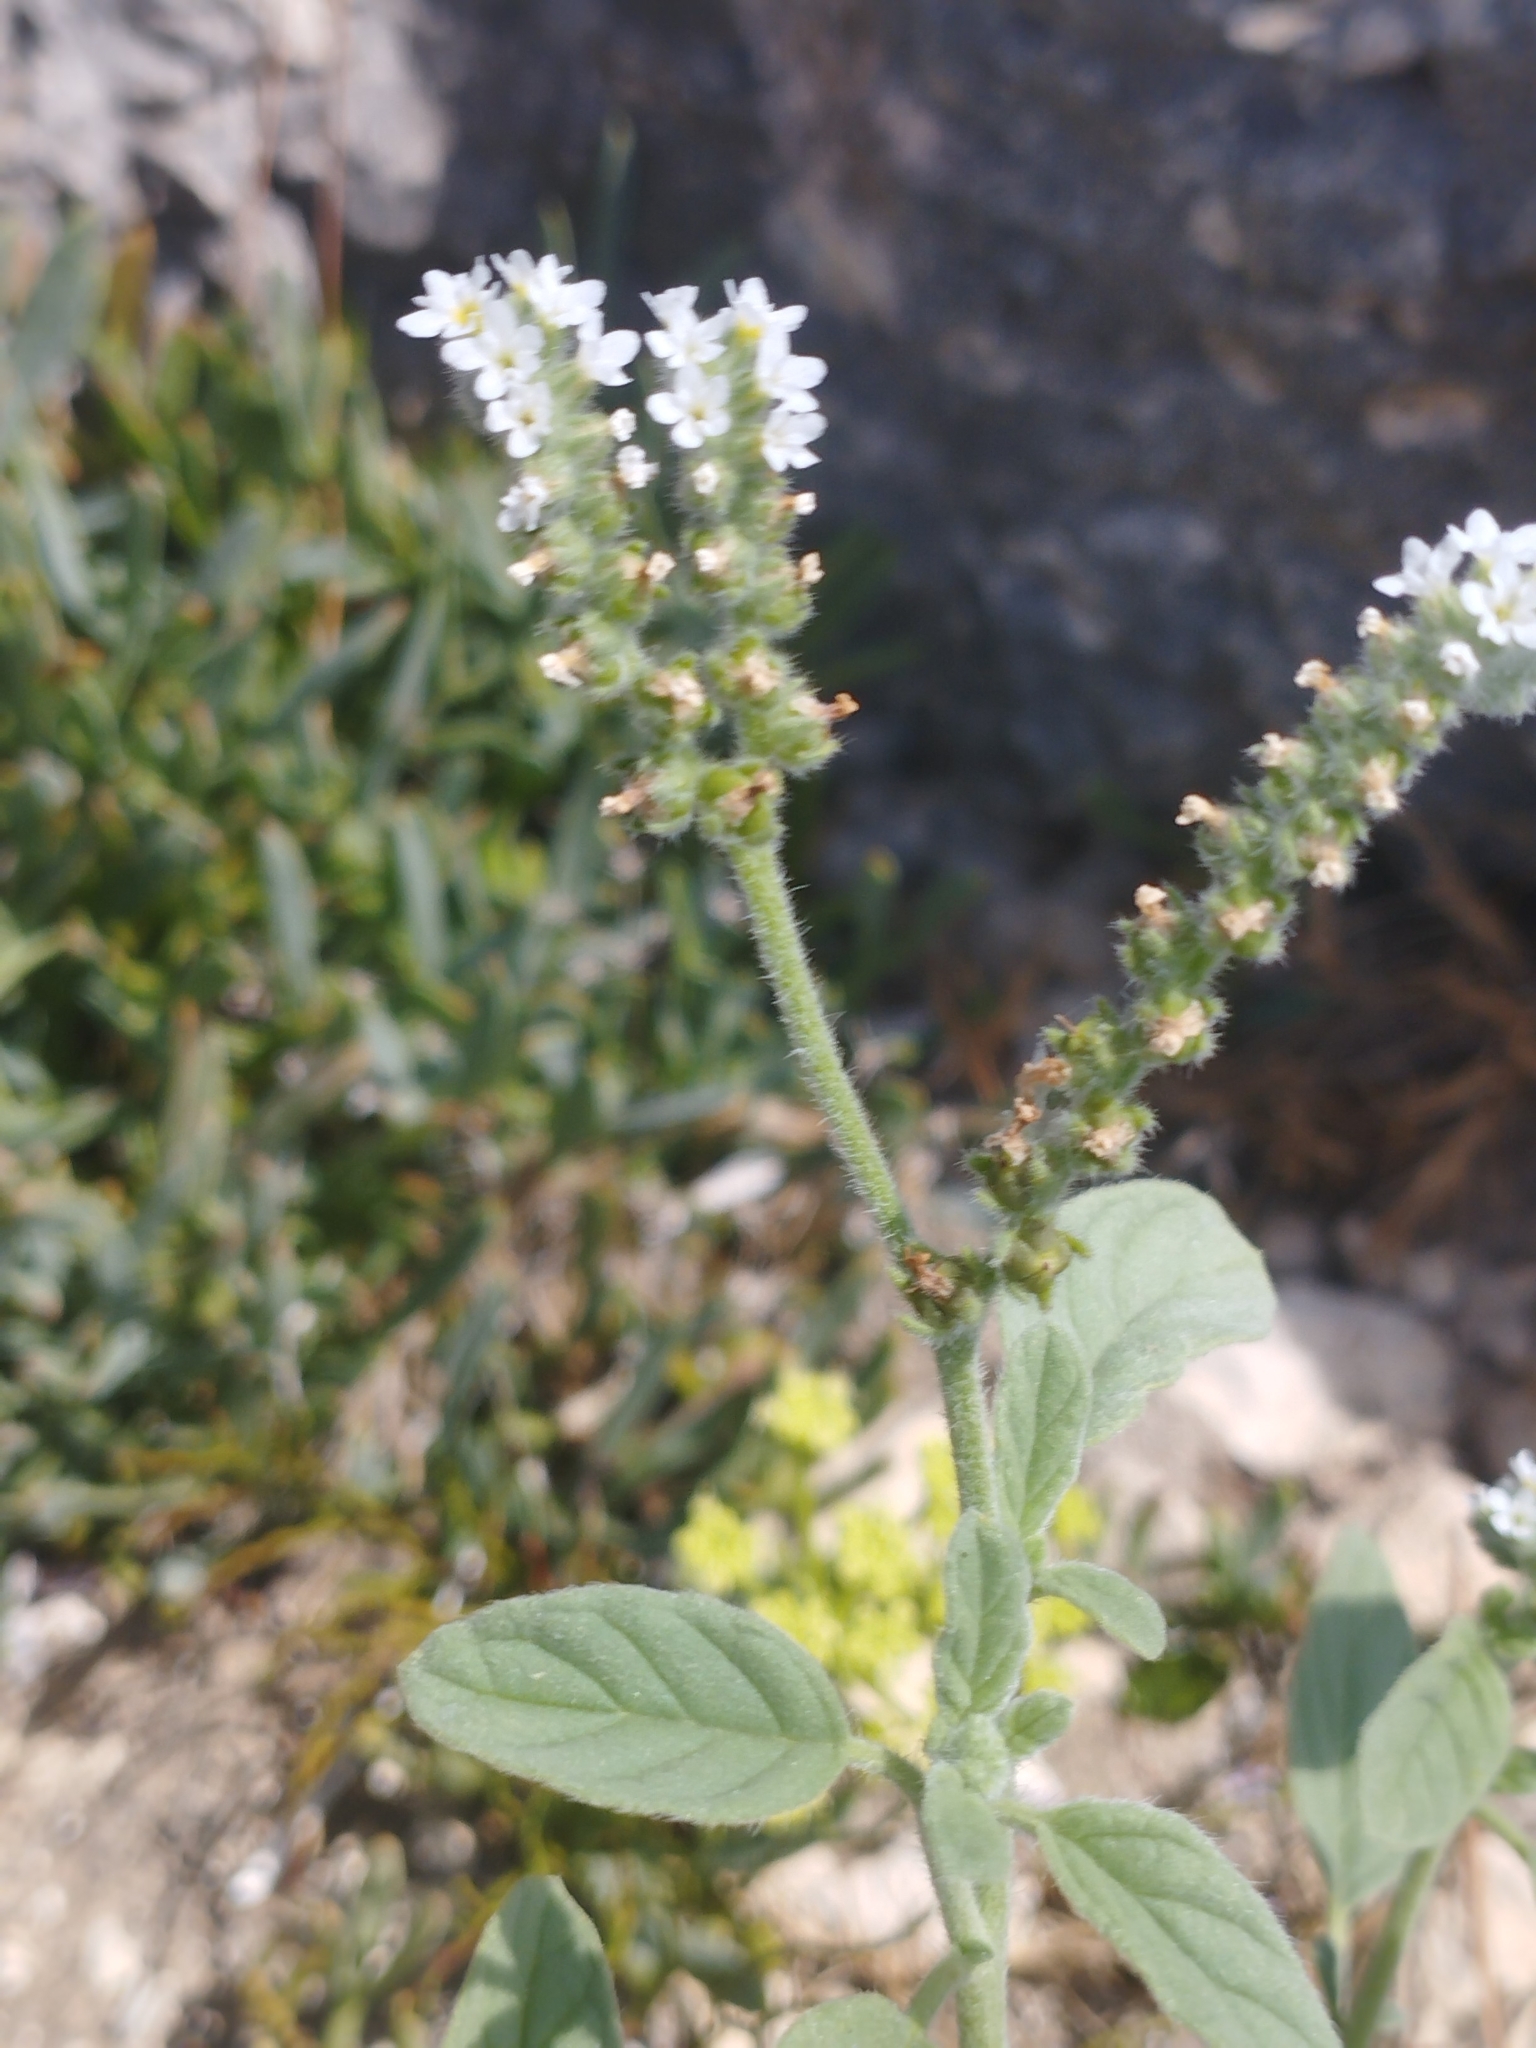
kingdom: Plantae
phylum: Tracheophyta
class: Magnoliopsida
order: Boraginales
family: Heliotropiaceae
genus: Heliotropium
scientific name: Heliotropium europaeum
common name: European heliotrope
